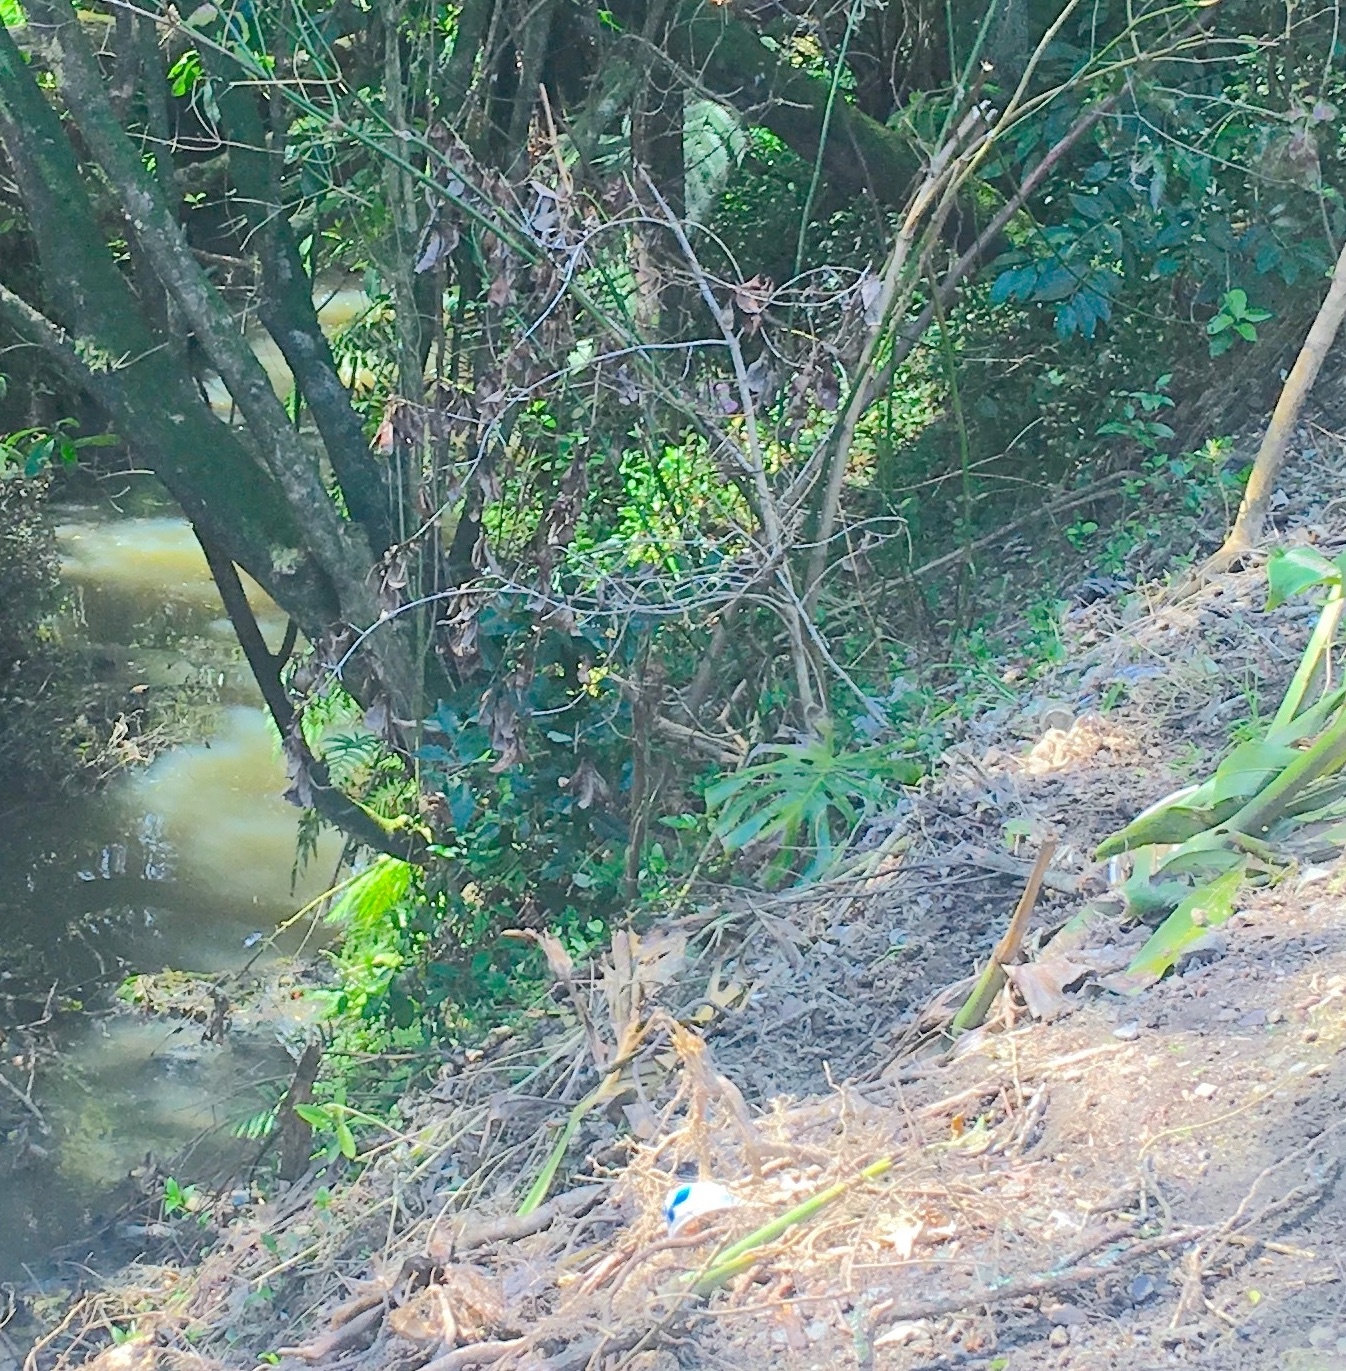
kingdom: Plantae
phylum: Tracheophyta
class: Liliopsida
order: Alismatales
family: Araceae
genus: Monstera
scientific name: Monstera deliciosa
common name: Cut-leaf-philodendron
